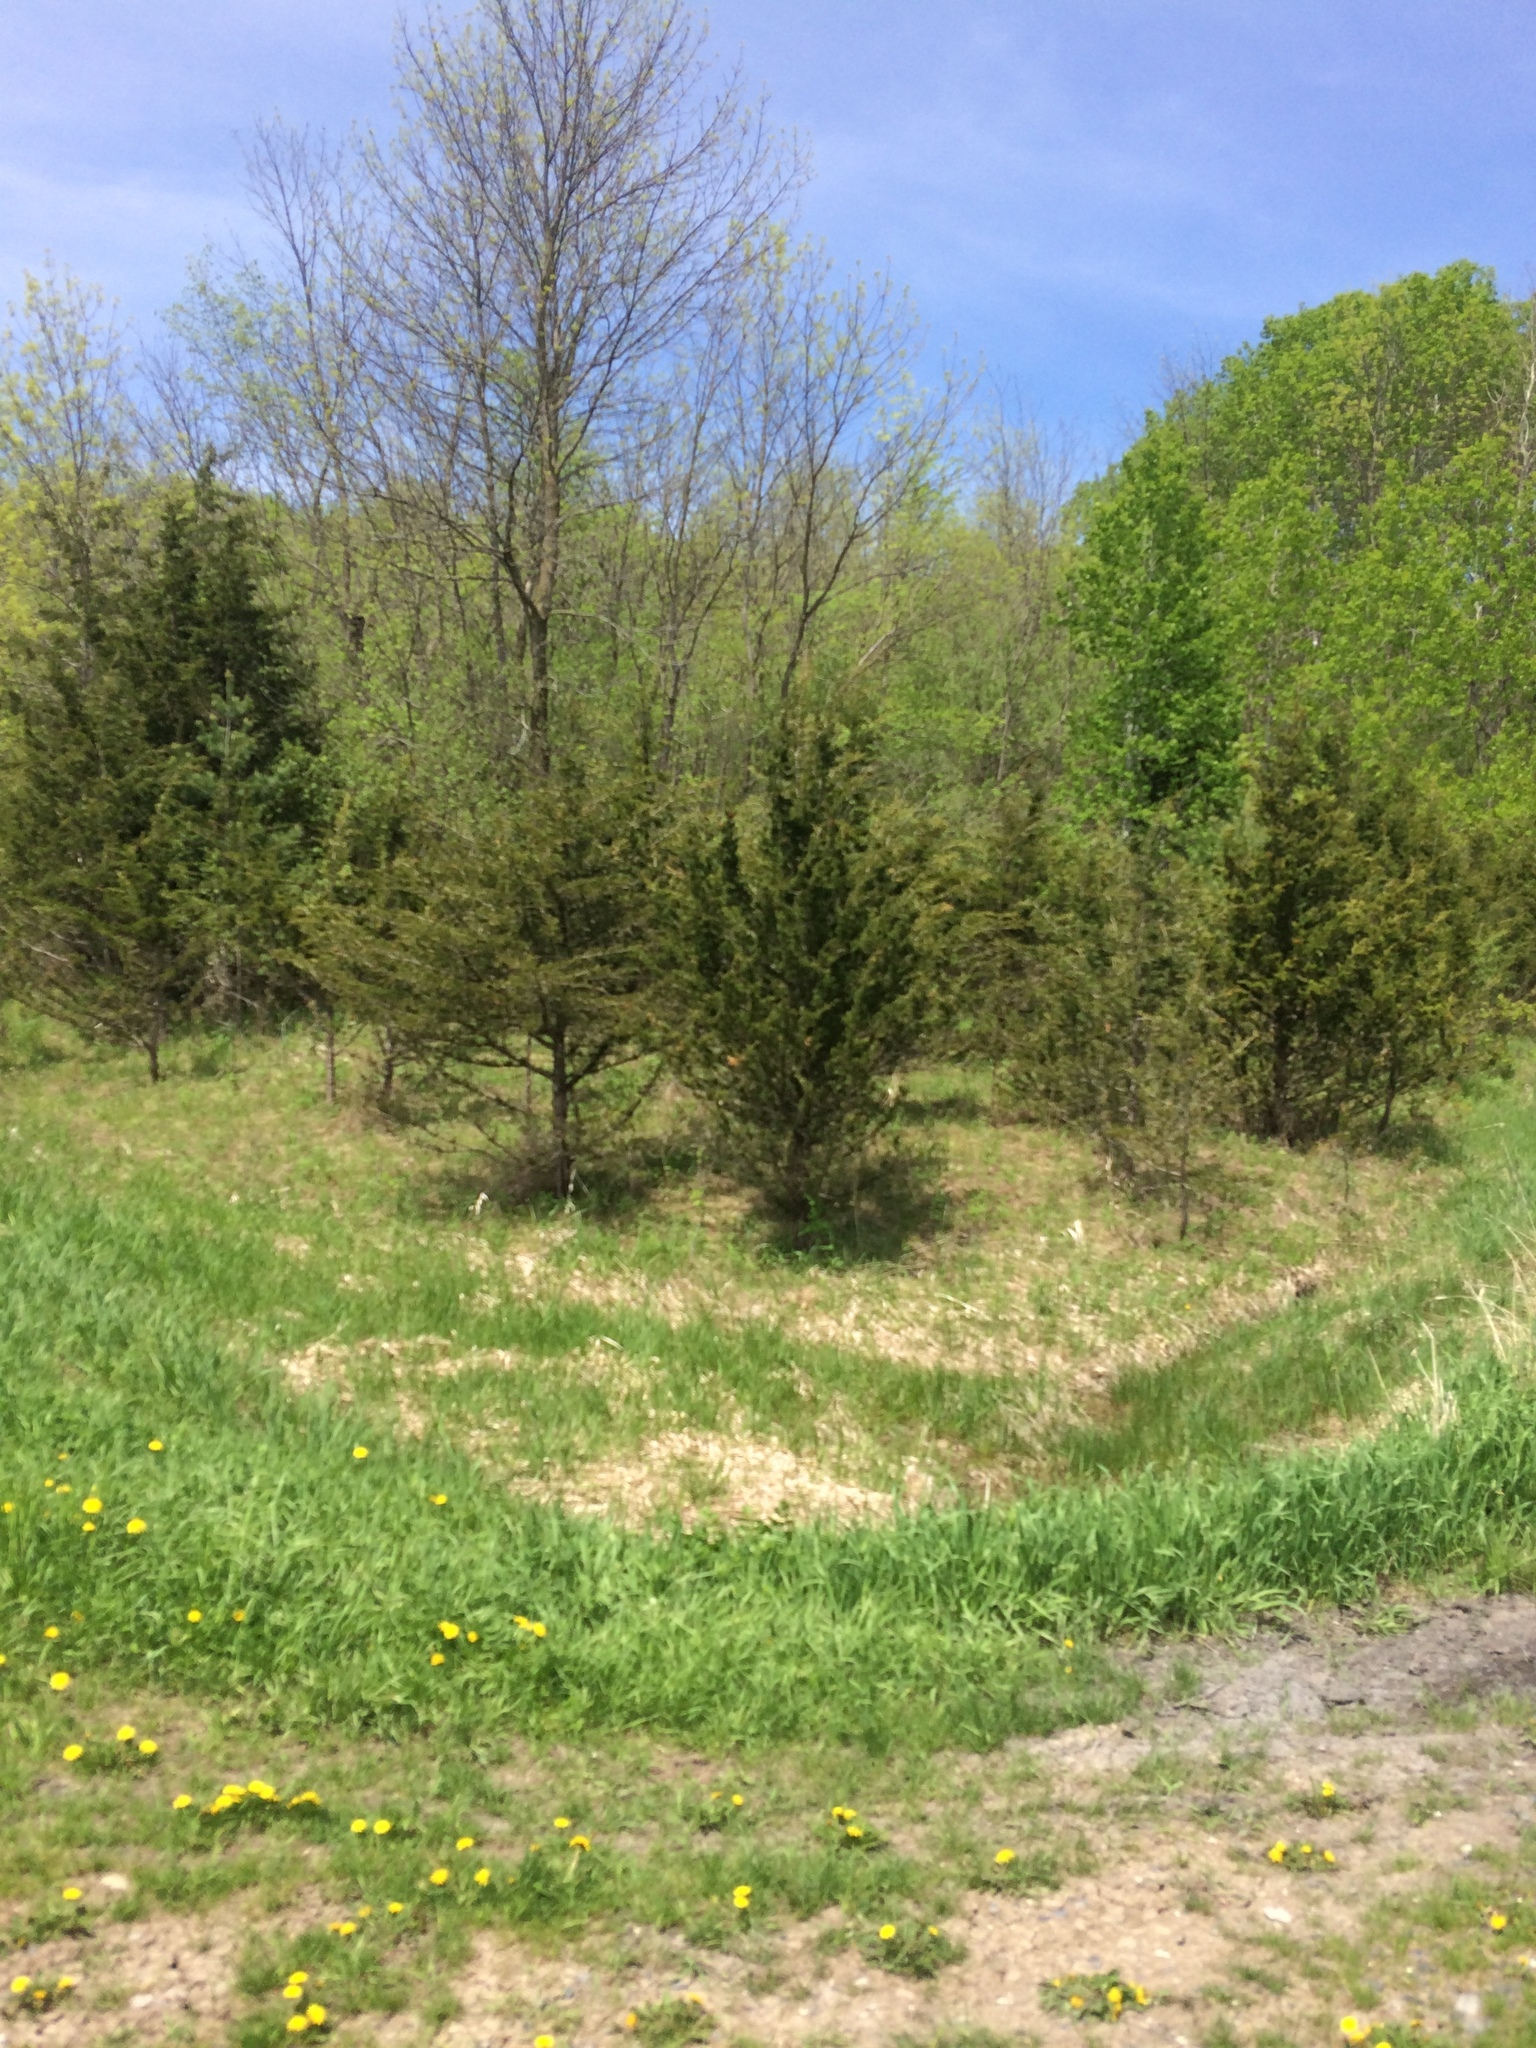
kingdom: Plantae
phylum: Tracheophyta
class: Pinopsida
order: Pinales
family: Cupressaceae
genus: Juniperus
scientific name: Juniperus virginiana
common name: Red juniper
